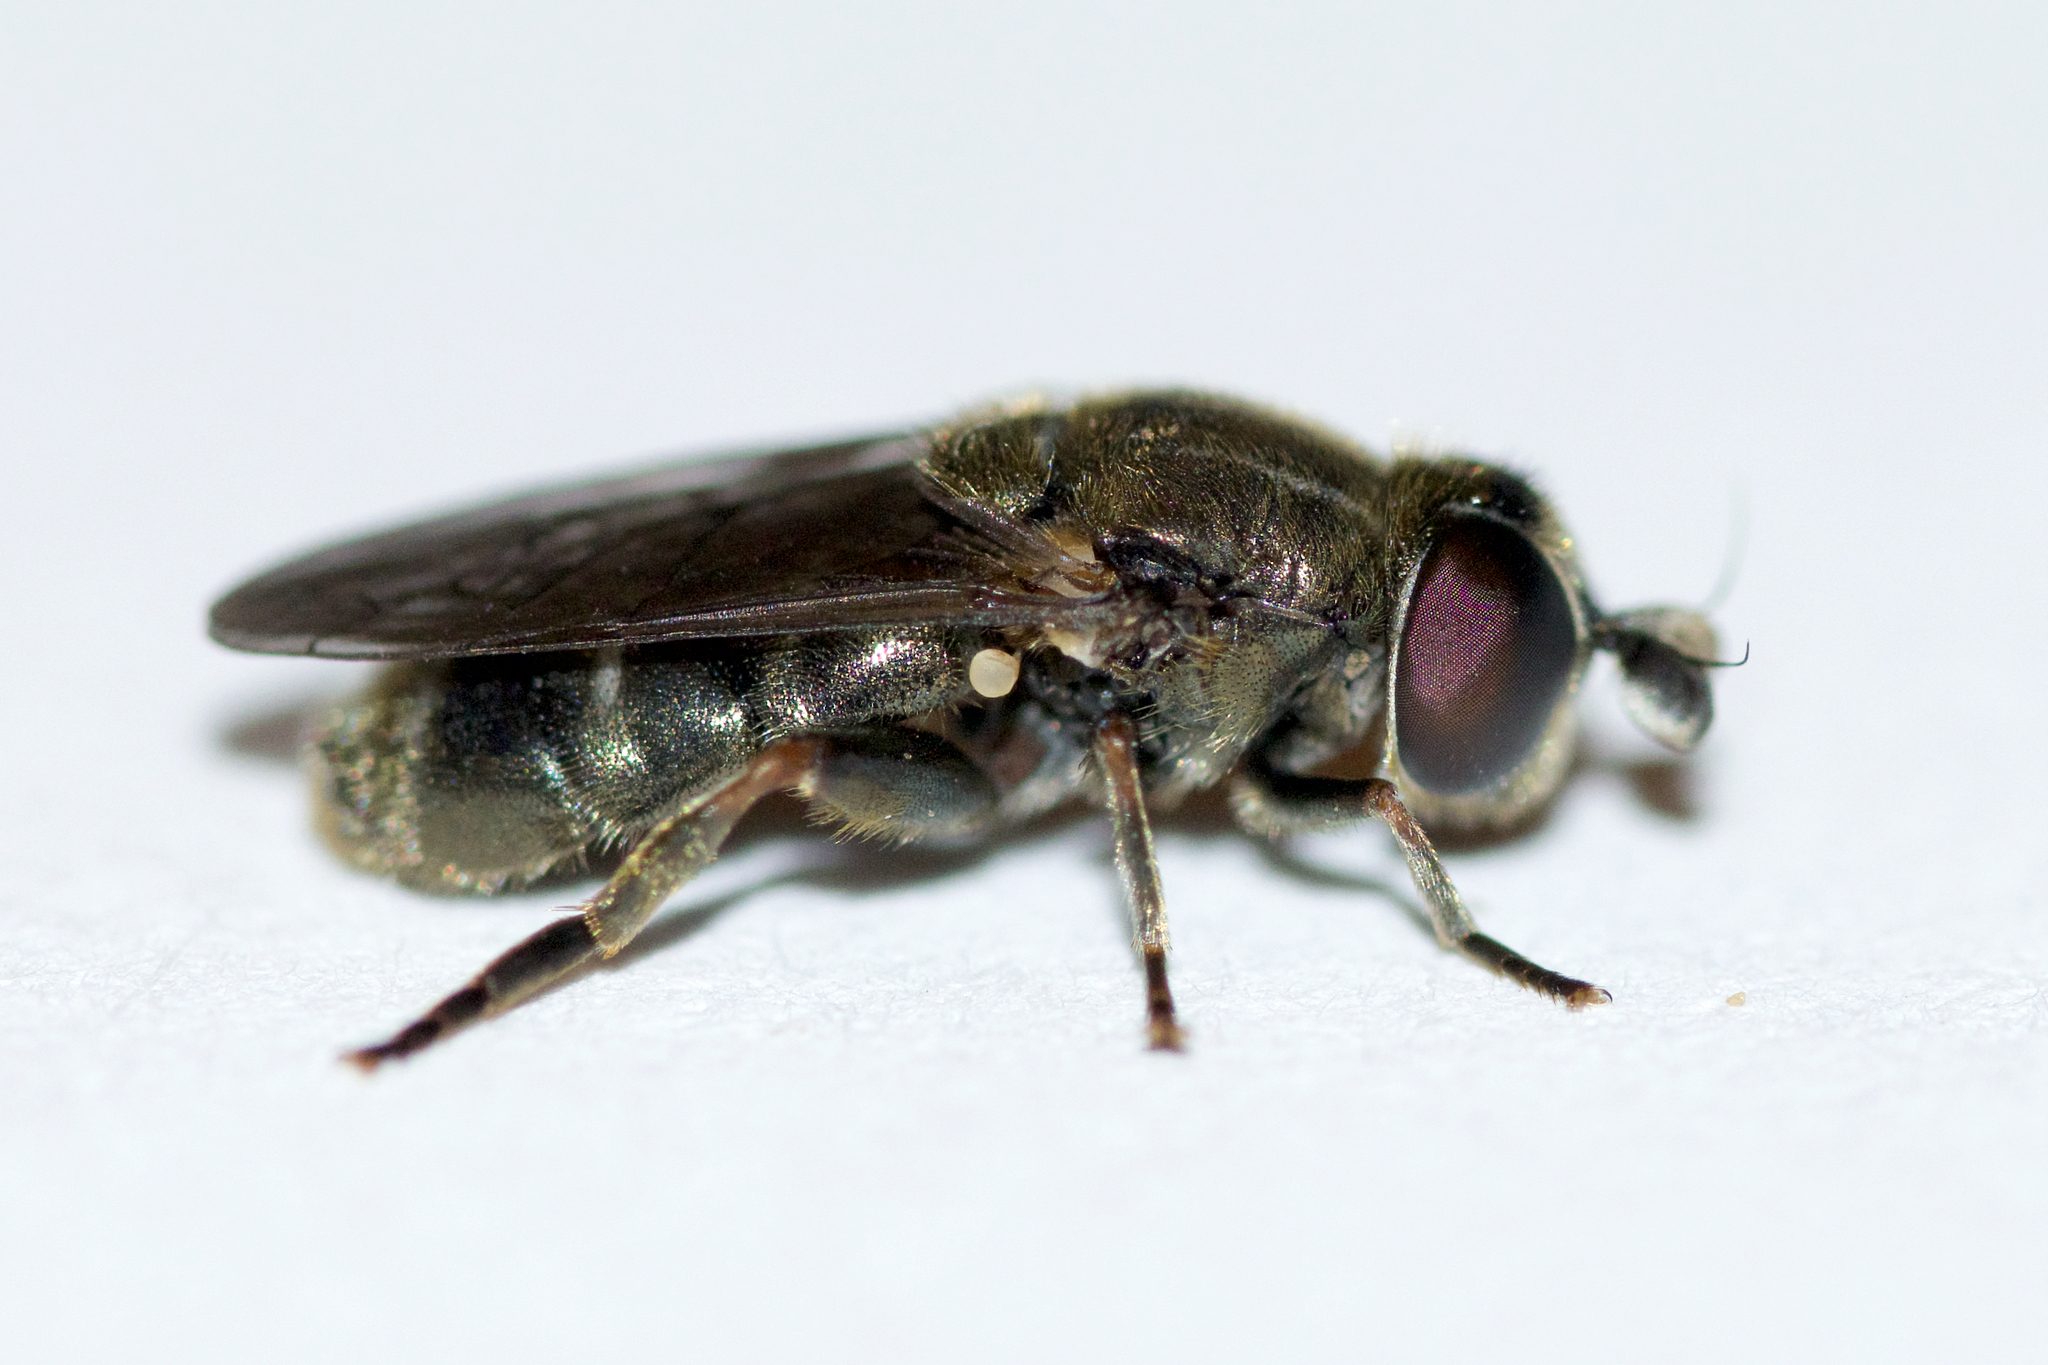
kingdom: Animalia
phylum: Arthropoda
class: Insecta
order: Diptera
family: Syrphidae
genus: Eumerus
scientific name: Eumerus
